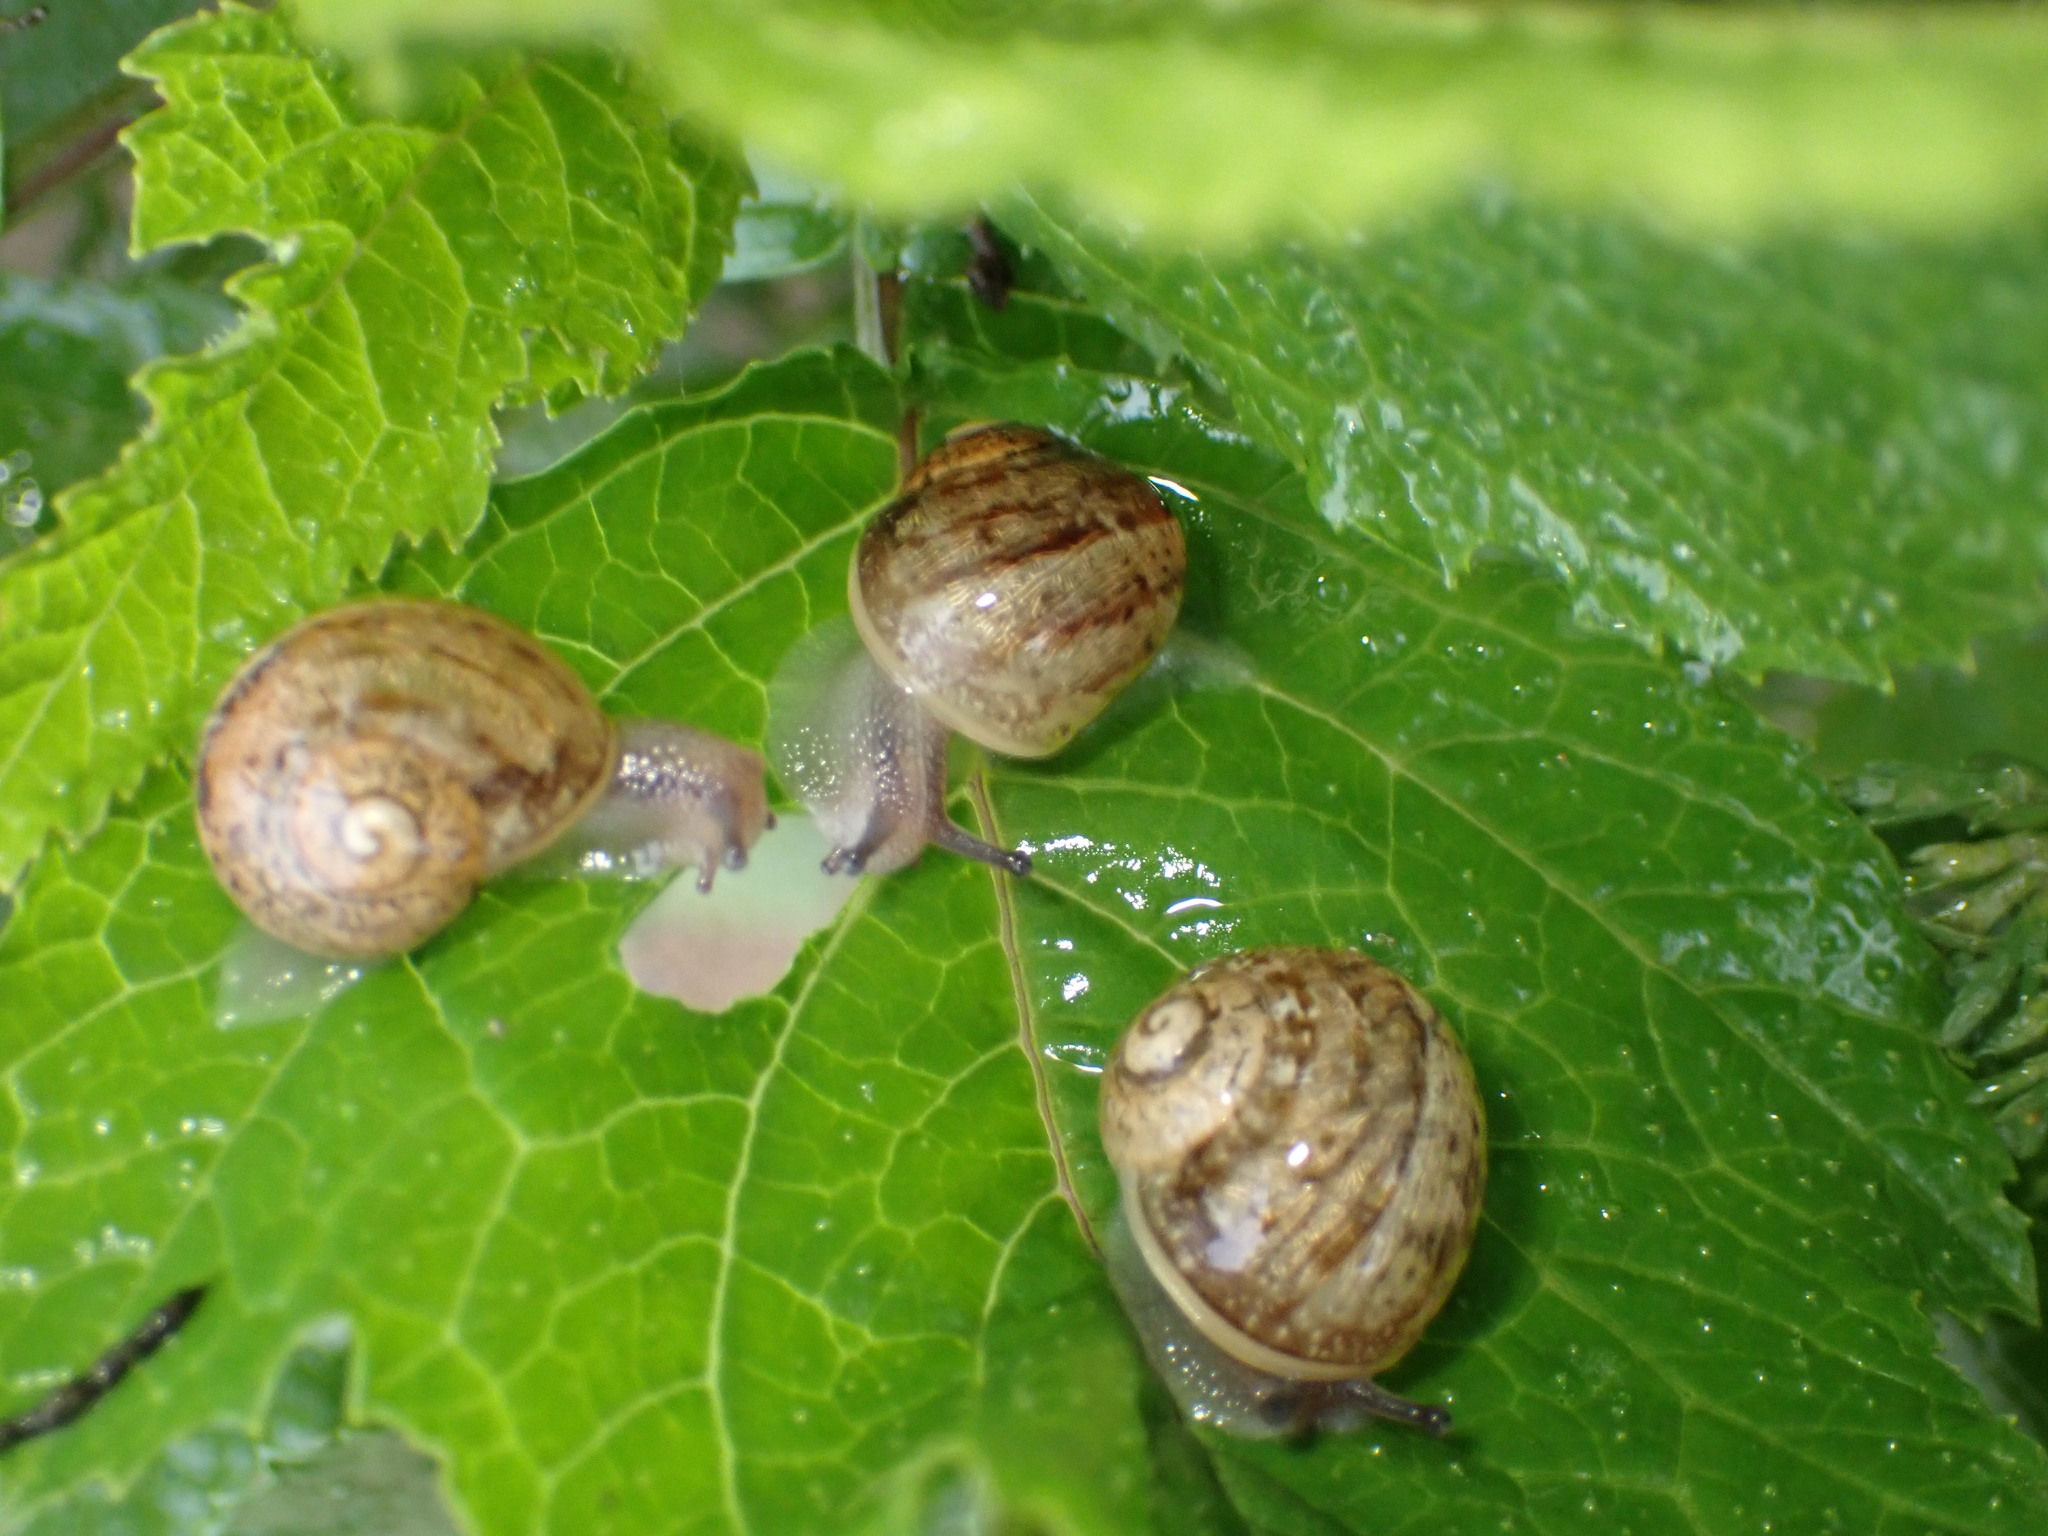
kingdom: Animalia
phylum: Mollusca
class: Gastropoda
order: Stylommatophora
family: Helicidae
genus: Cornu
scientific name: Cornu aspersum
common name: Brown garden snail
